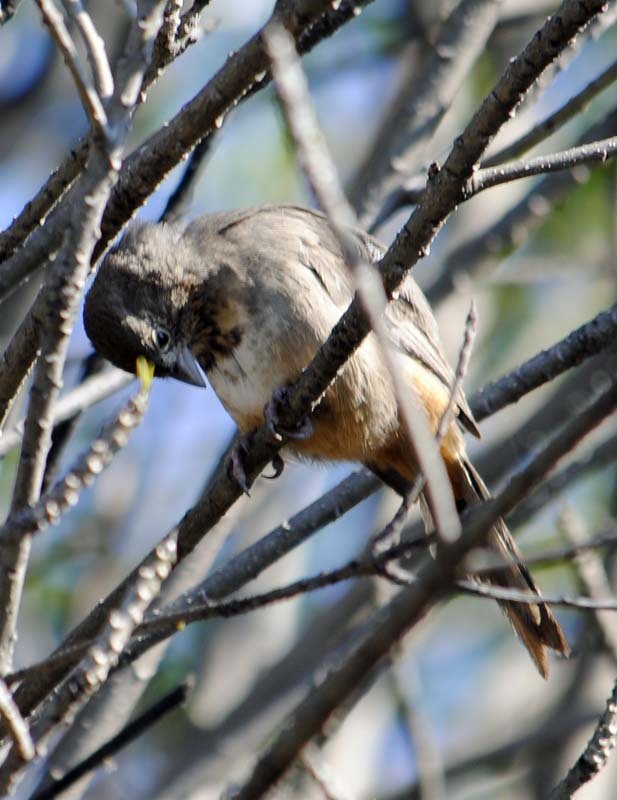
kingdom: Animalia
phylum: Chordata
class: Aves
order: Passeriformes
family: Passerellidae
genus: Melozone
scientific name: Melozone fusca
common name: Canyon towhee
